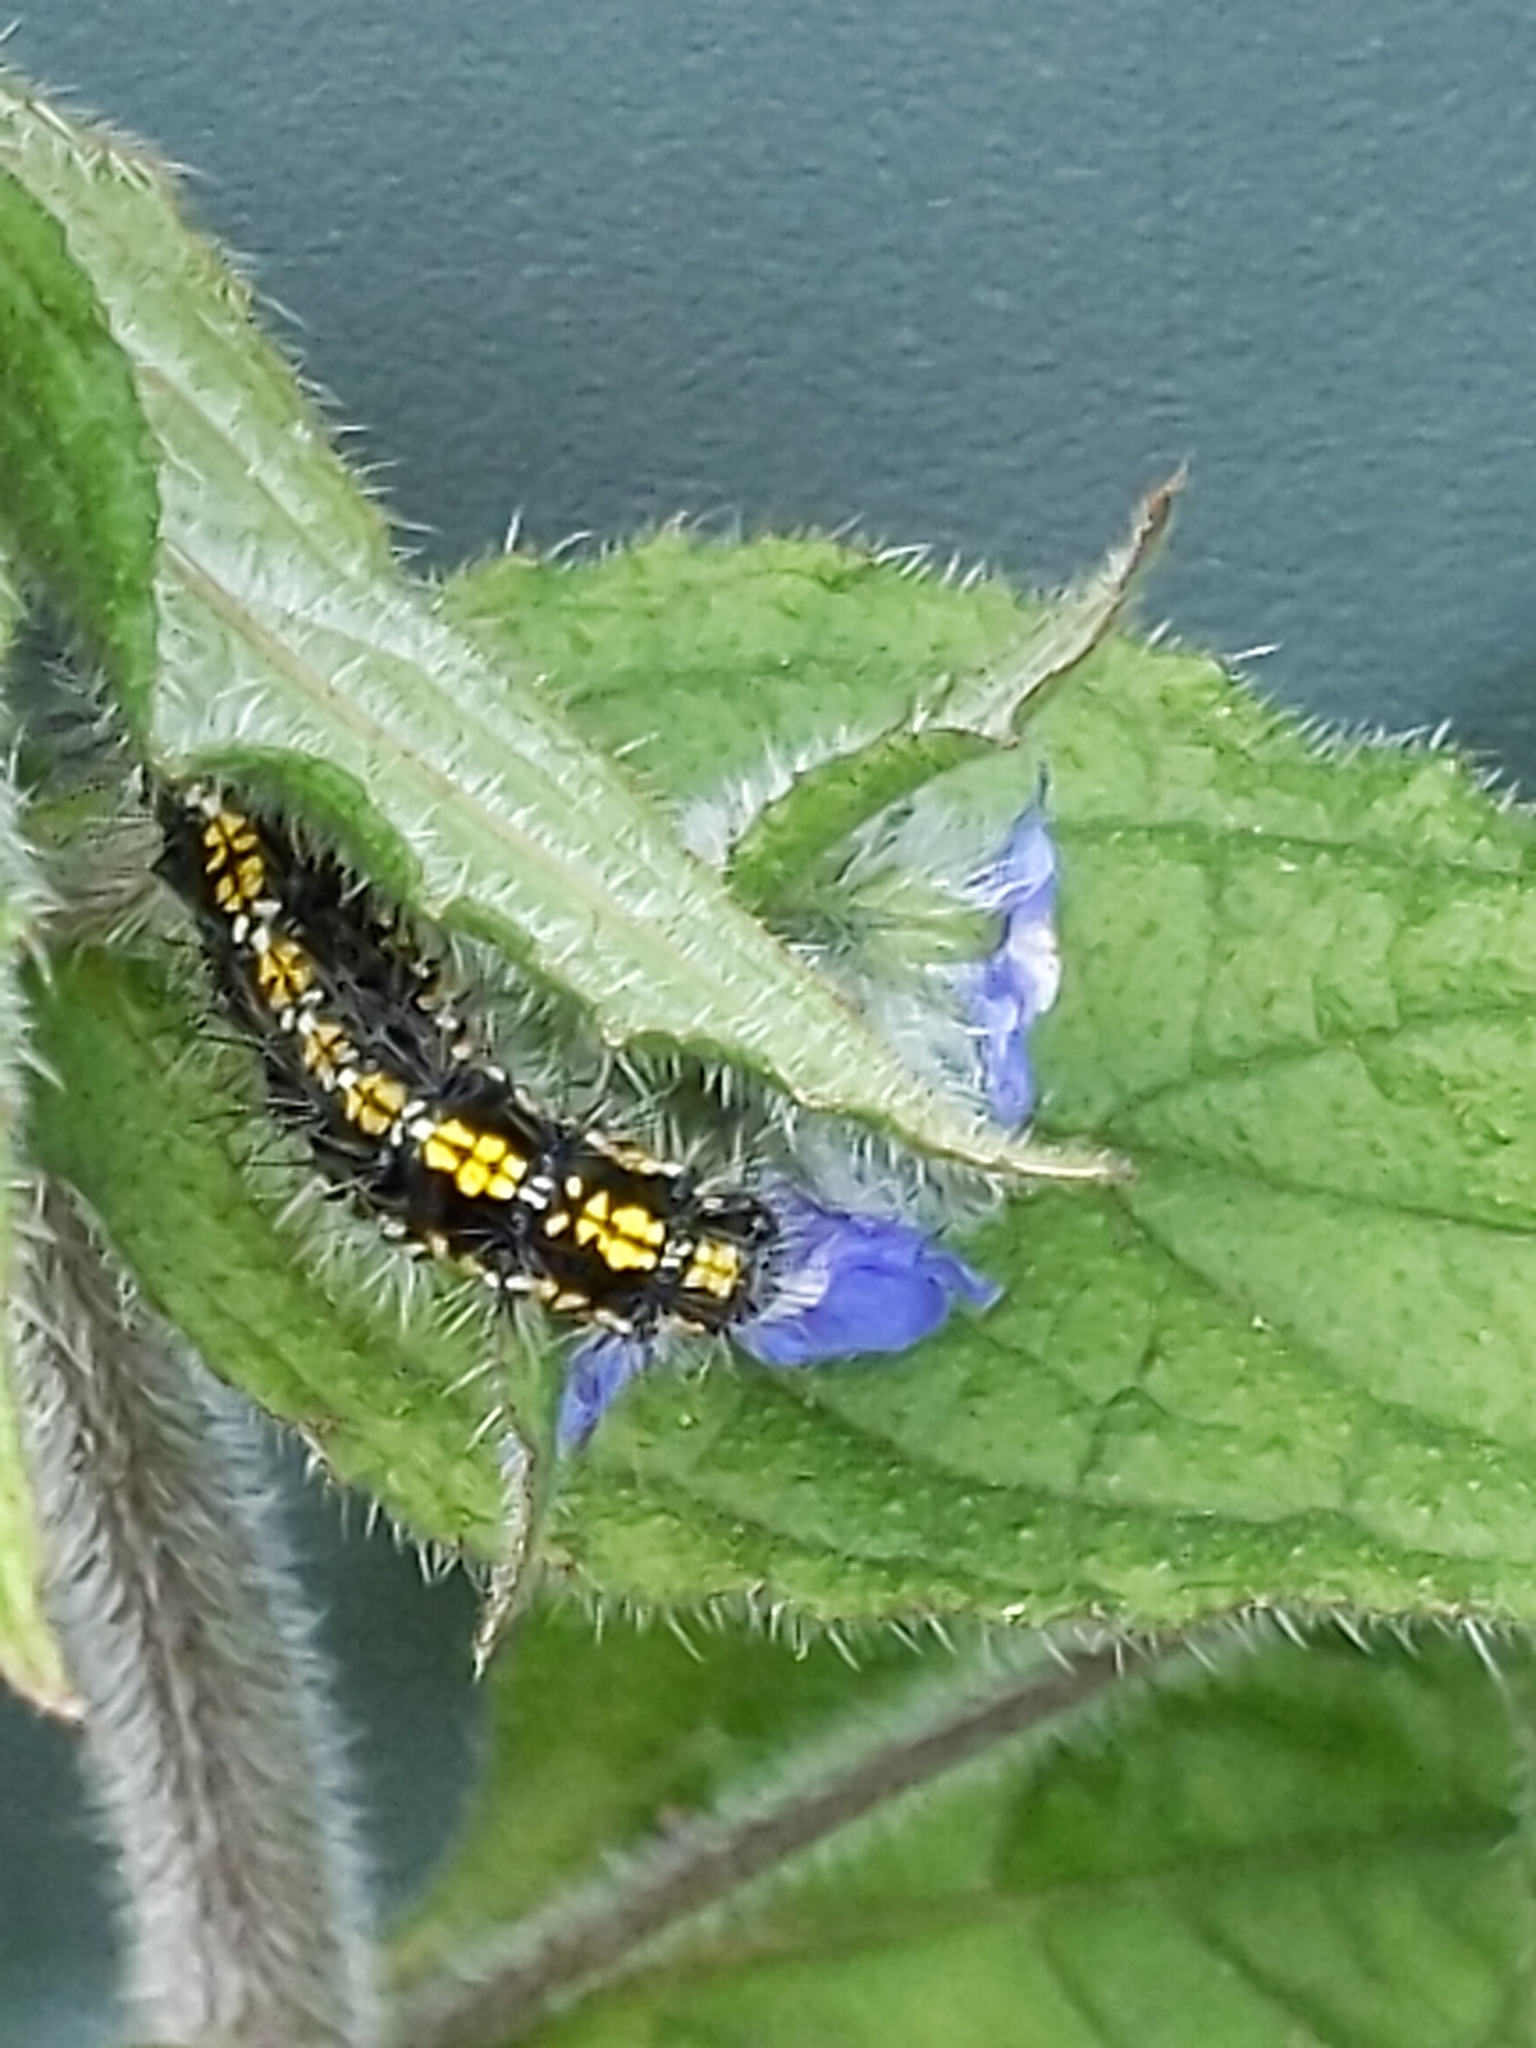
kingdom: Animalia
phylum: Arthropoda
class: Insecta
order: Lepidoptera
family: Erebidae
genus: Callimorpha
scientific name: Callimorpha dominula
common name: Scarlet tiger
